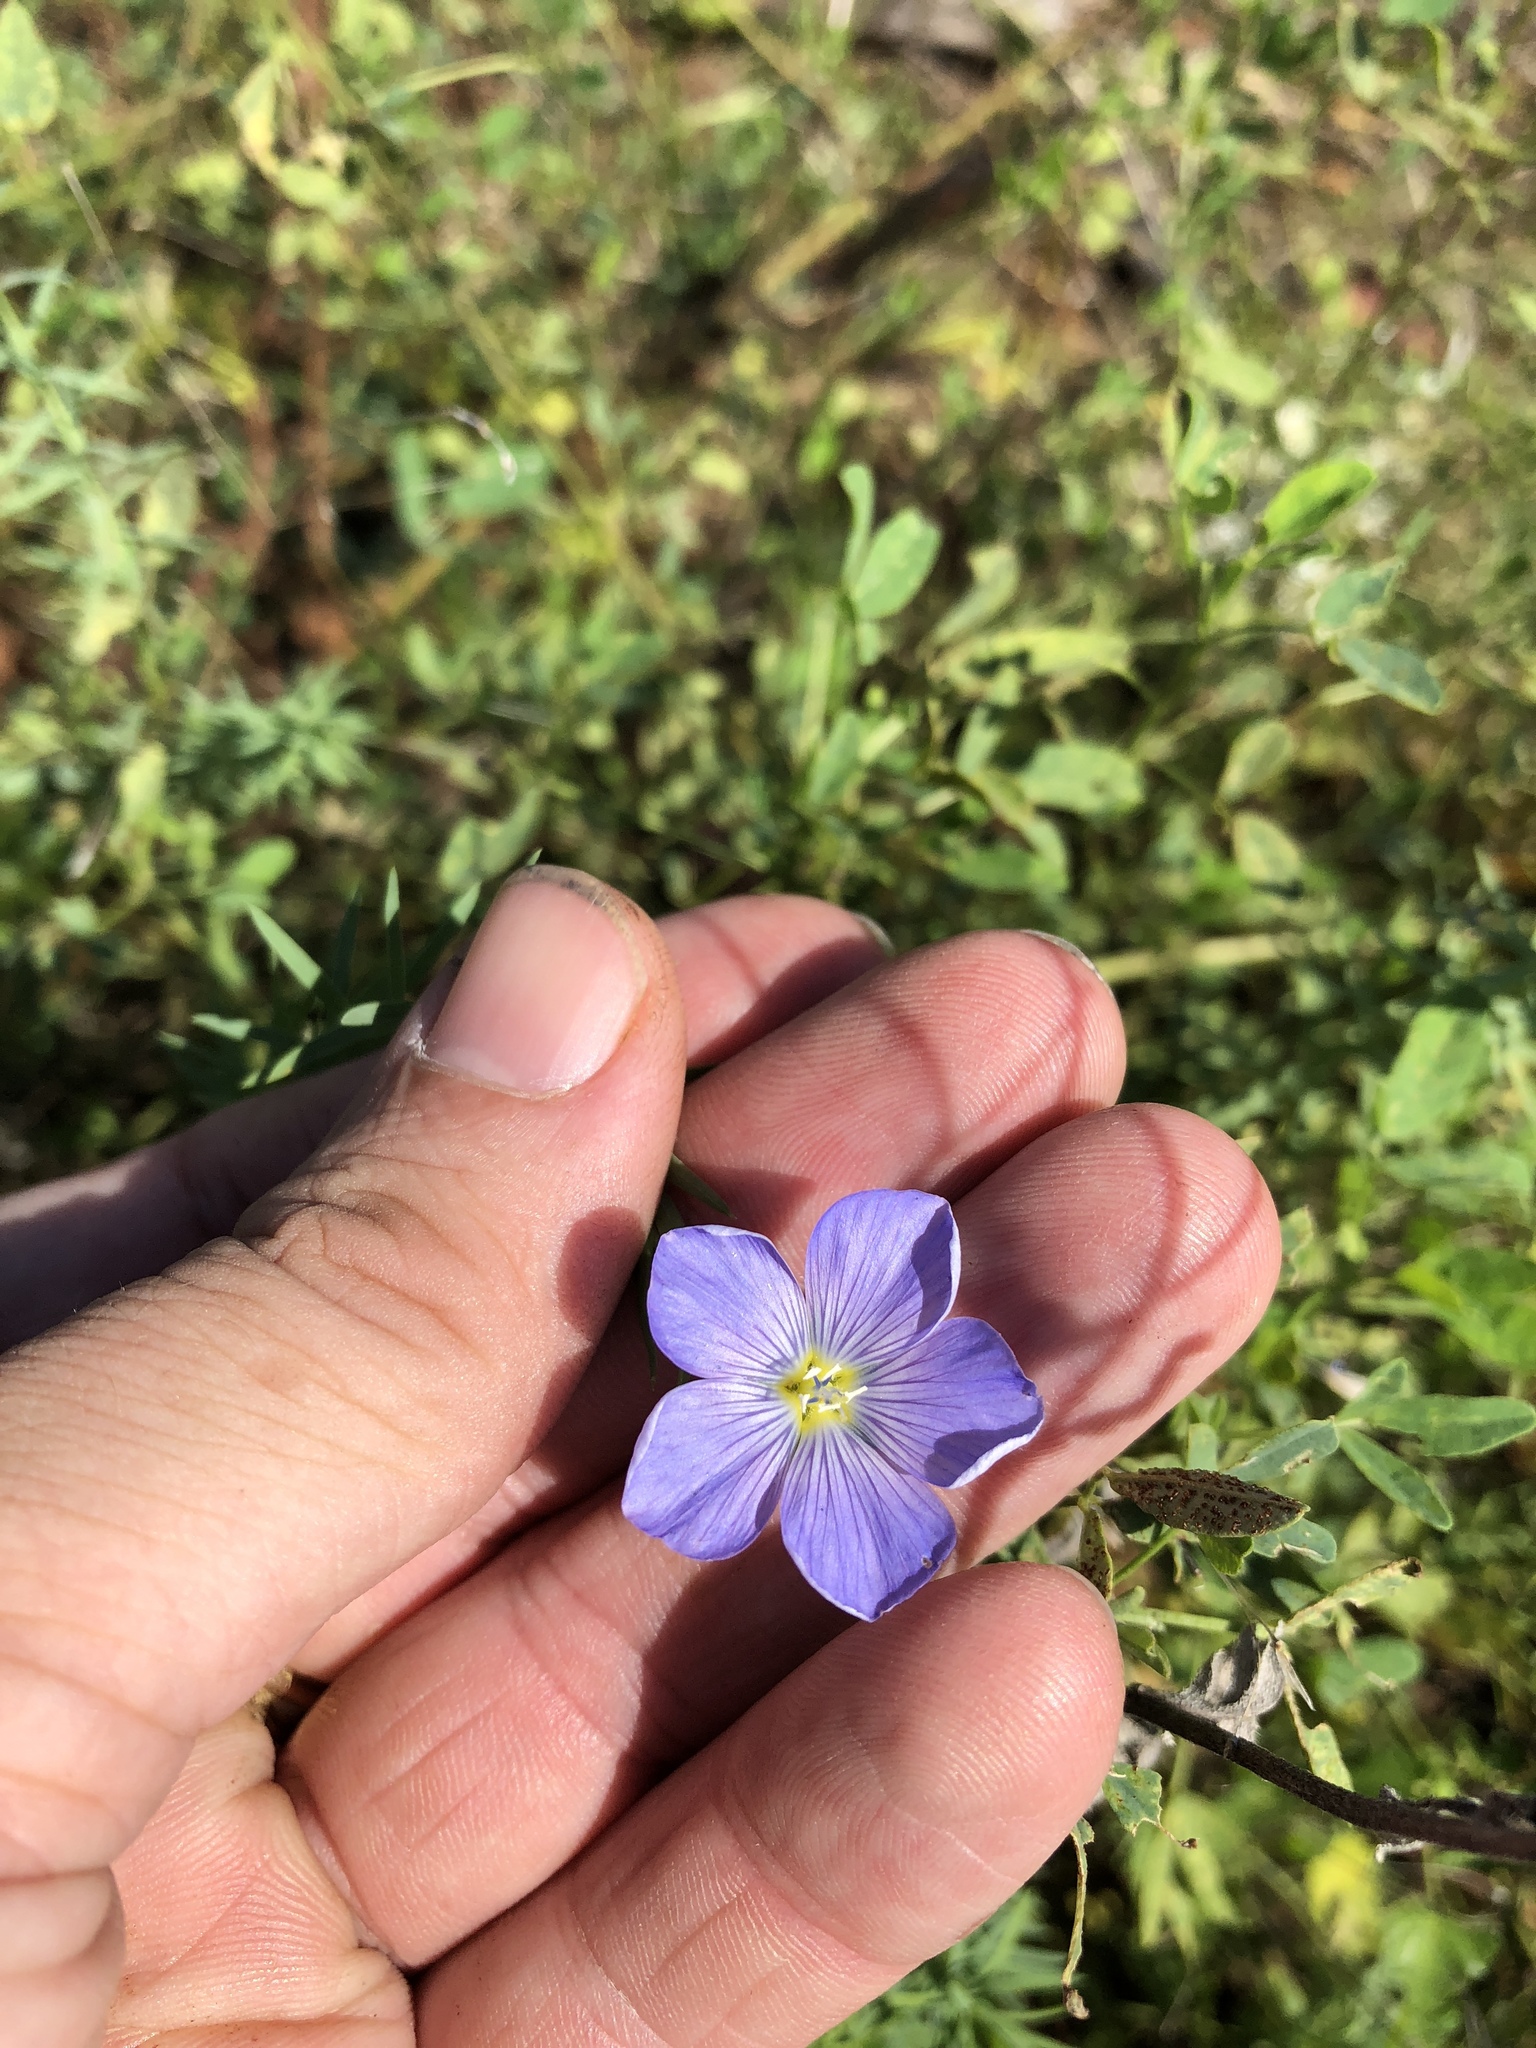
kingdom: Plantae
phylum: Tracheophyta
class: Magnoliopsida
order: Malpighiales
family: Linaceae
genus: Linum
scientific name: Linum pratense
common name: Norton's flax
